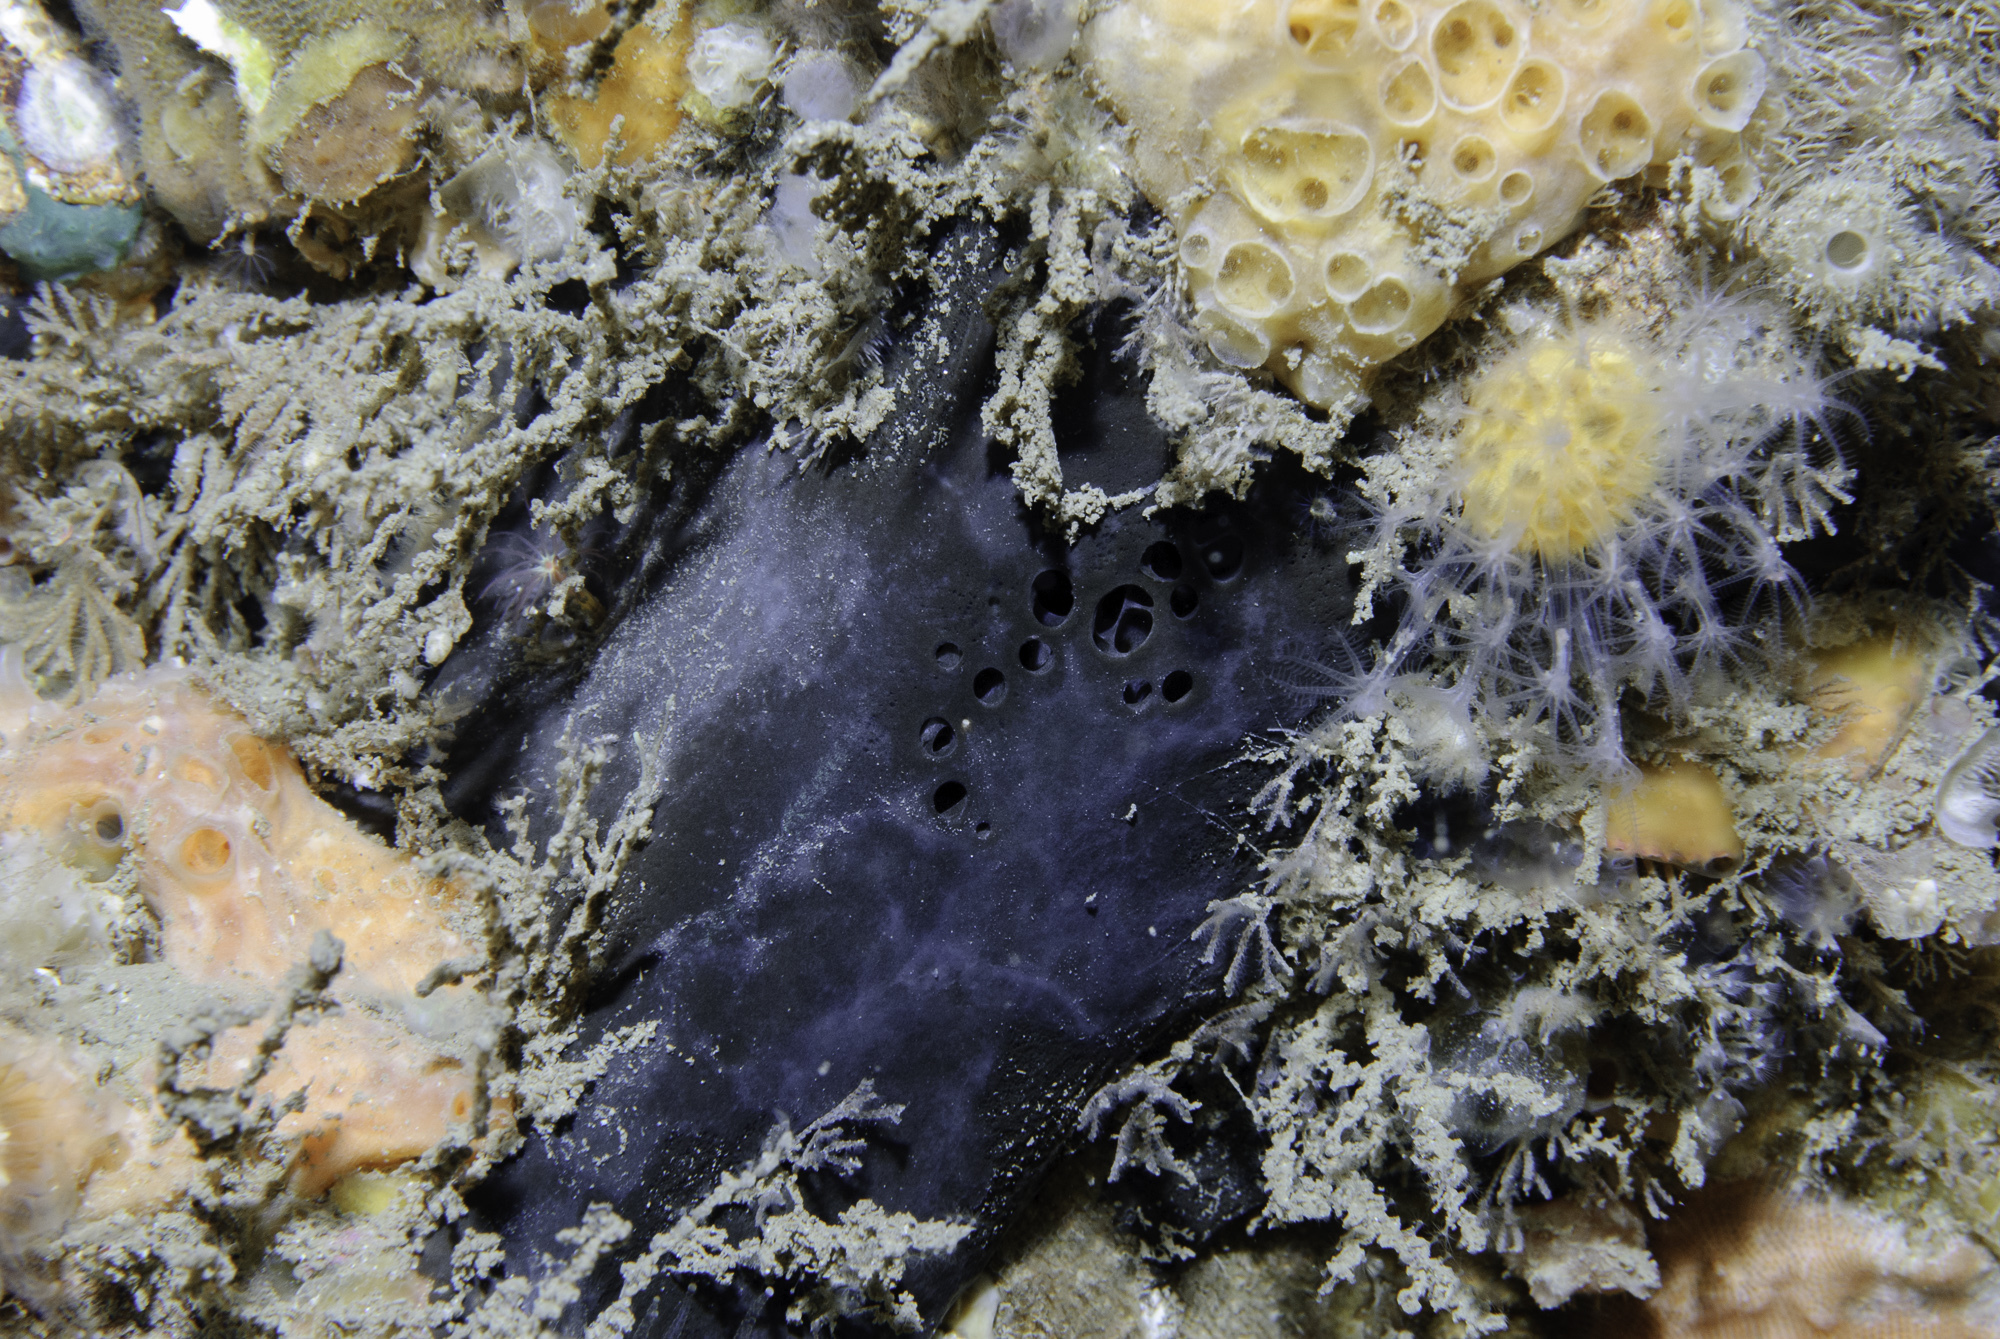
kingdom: Animalia
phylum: Porifera
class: Demospongiae
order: Tetractinellida
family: Ancorinidae
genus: Dercitus
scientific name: Dercitus bucklandi
